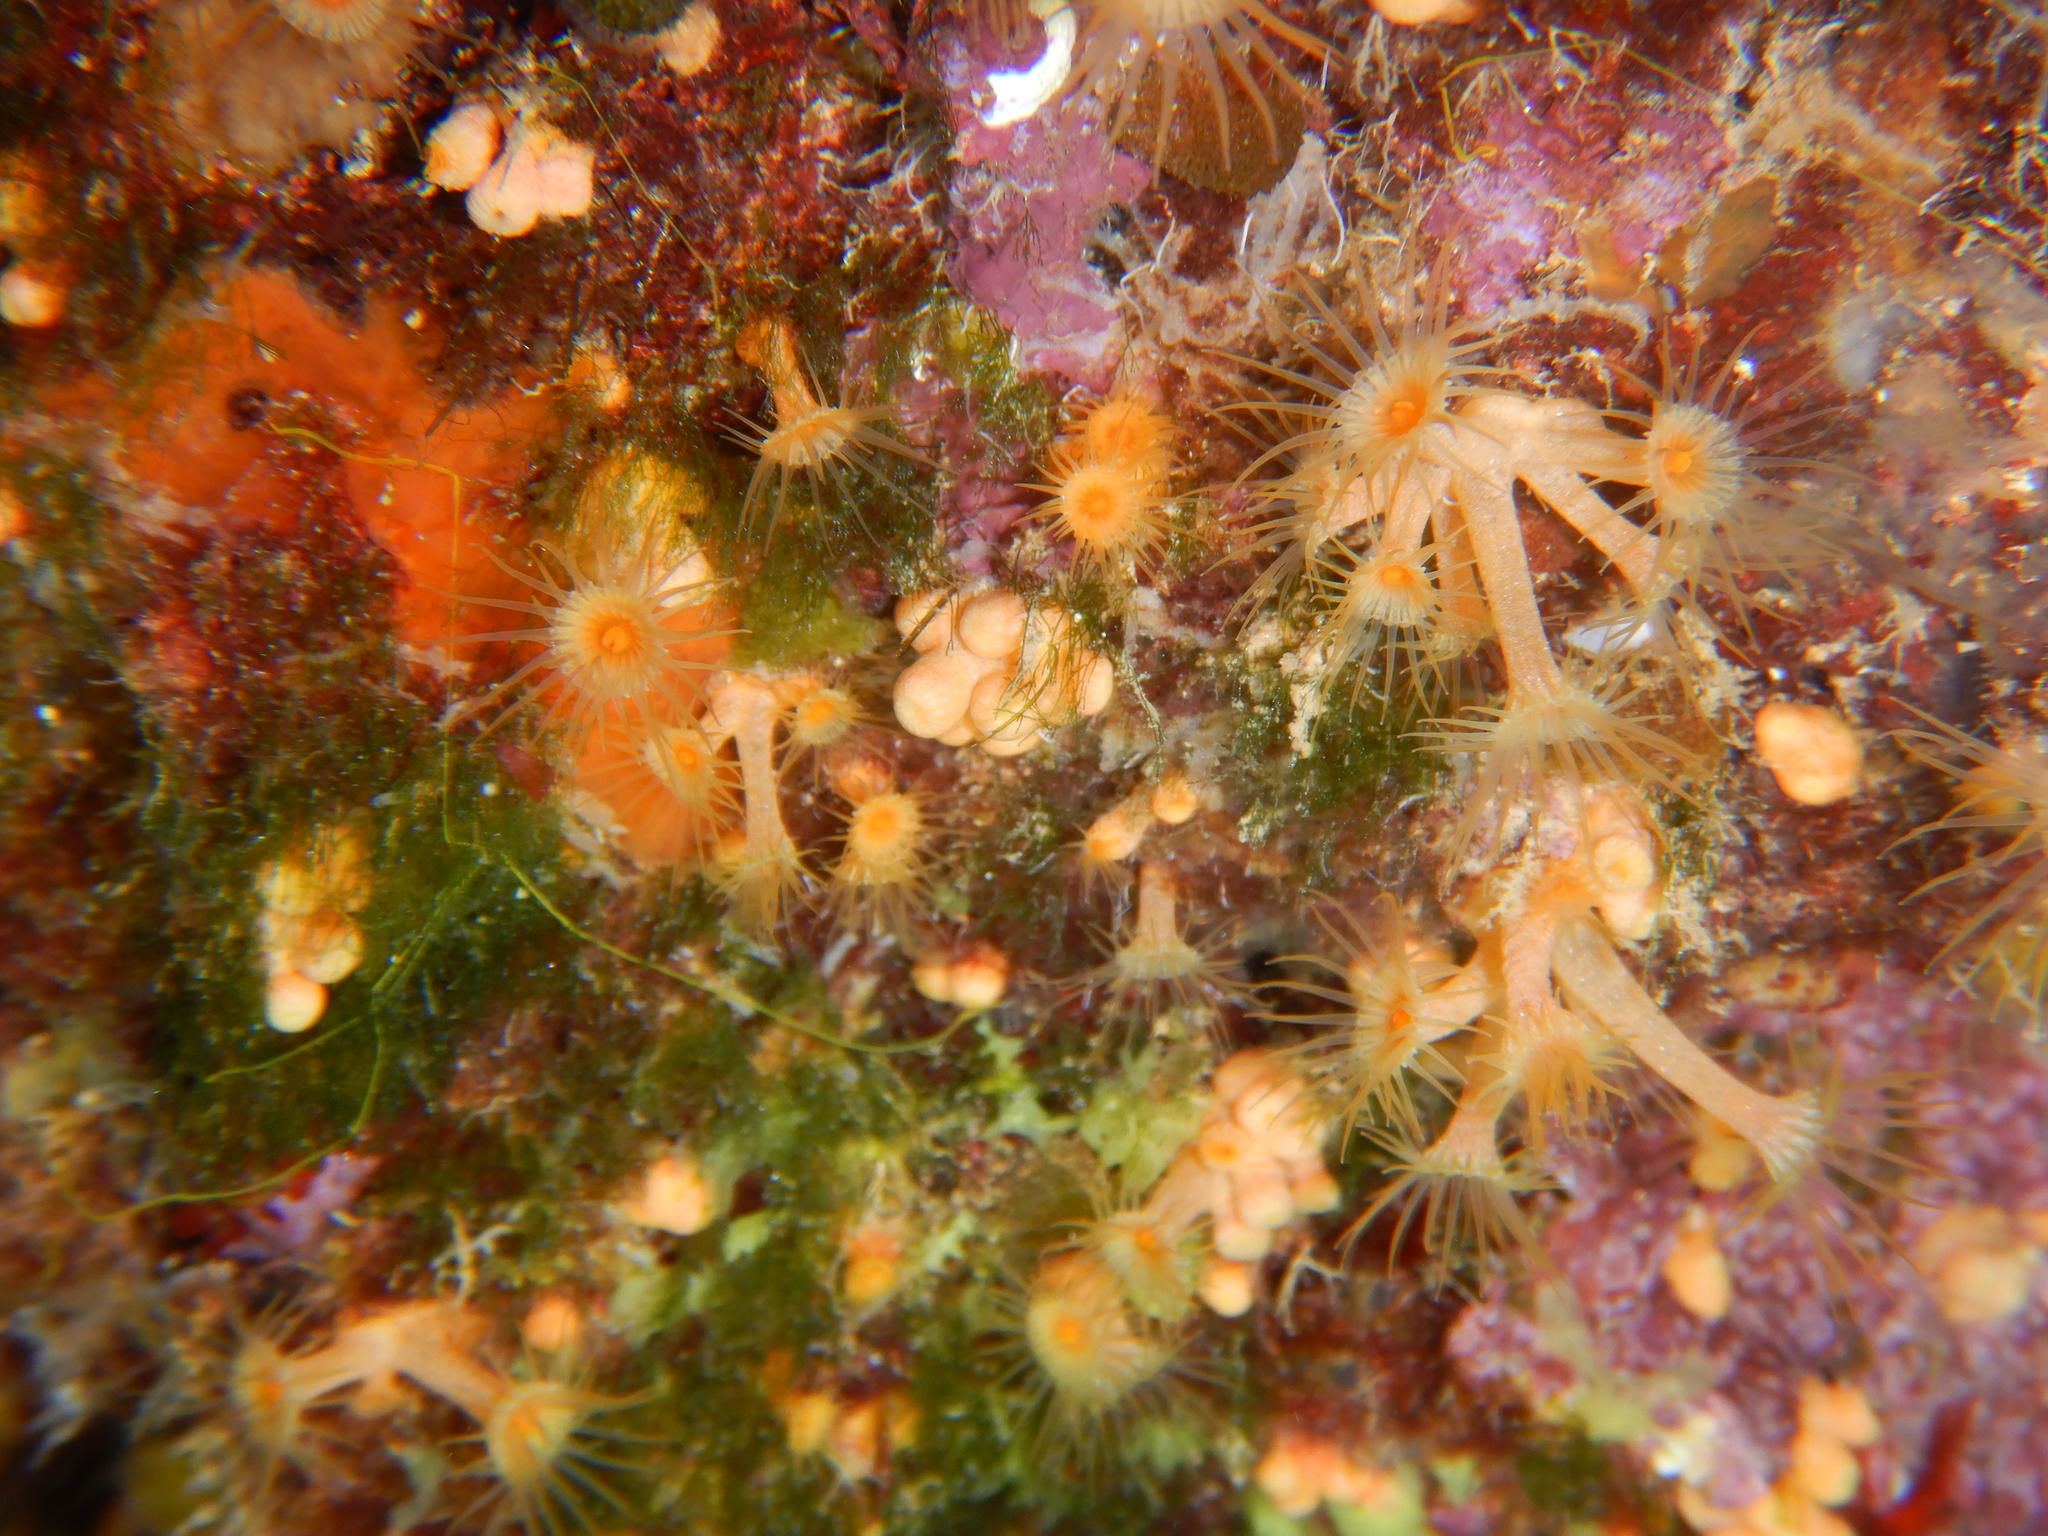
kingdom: Animalia
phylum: Cnidaria
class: Anthozoa
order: Zoantharia
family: Parazoanthidae
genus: Parazoanthus
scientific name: Parazoanthus axinellae
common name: Yellow cluster anemone
